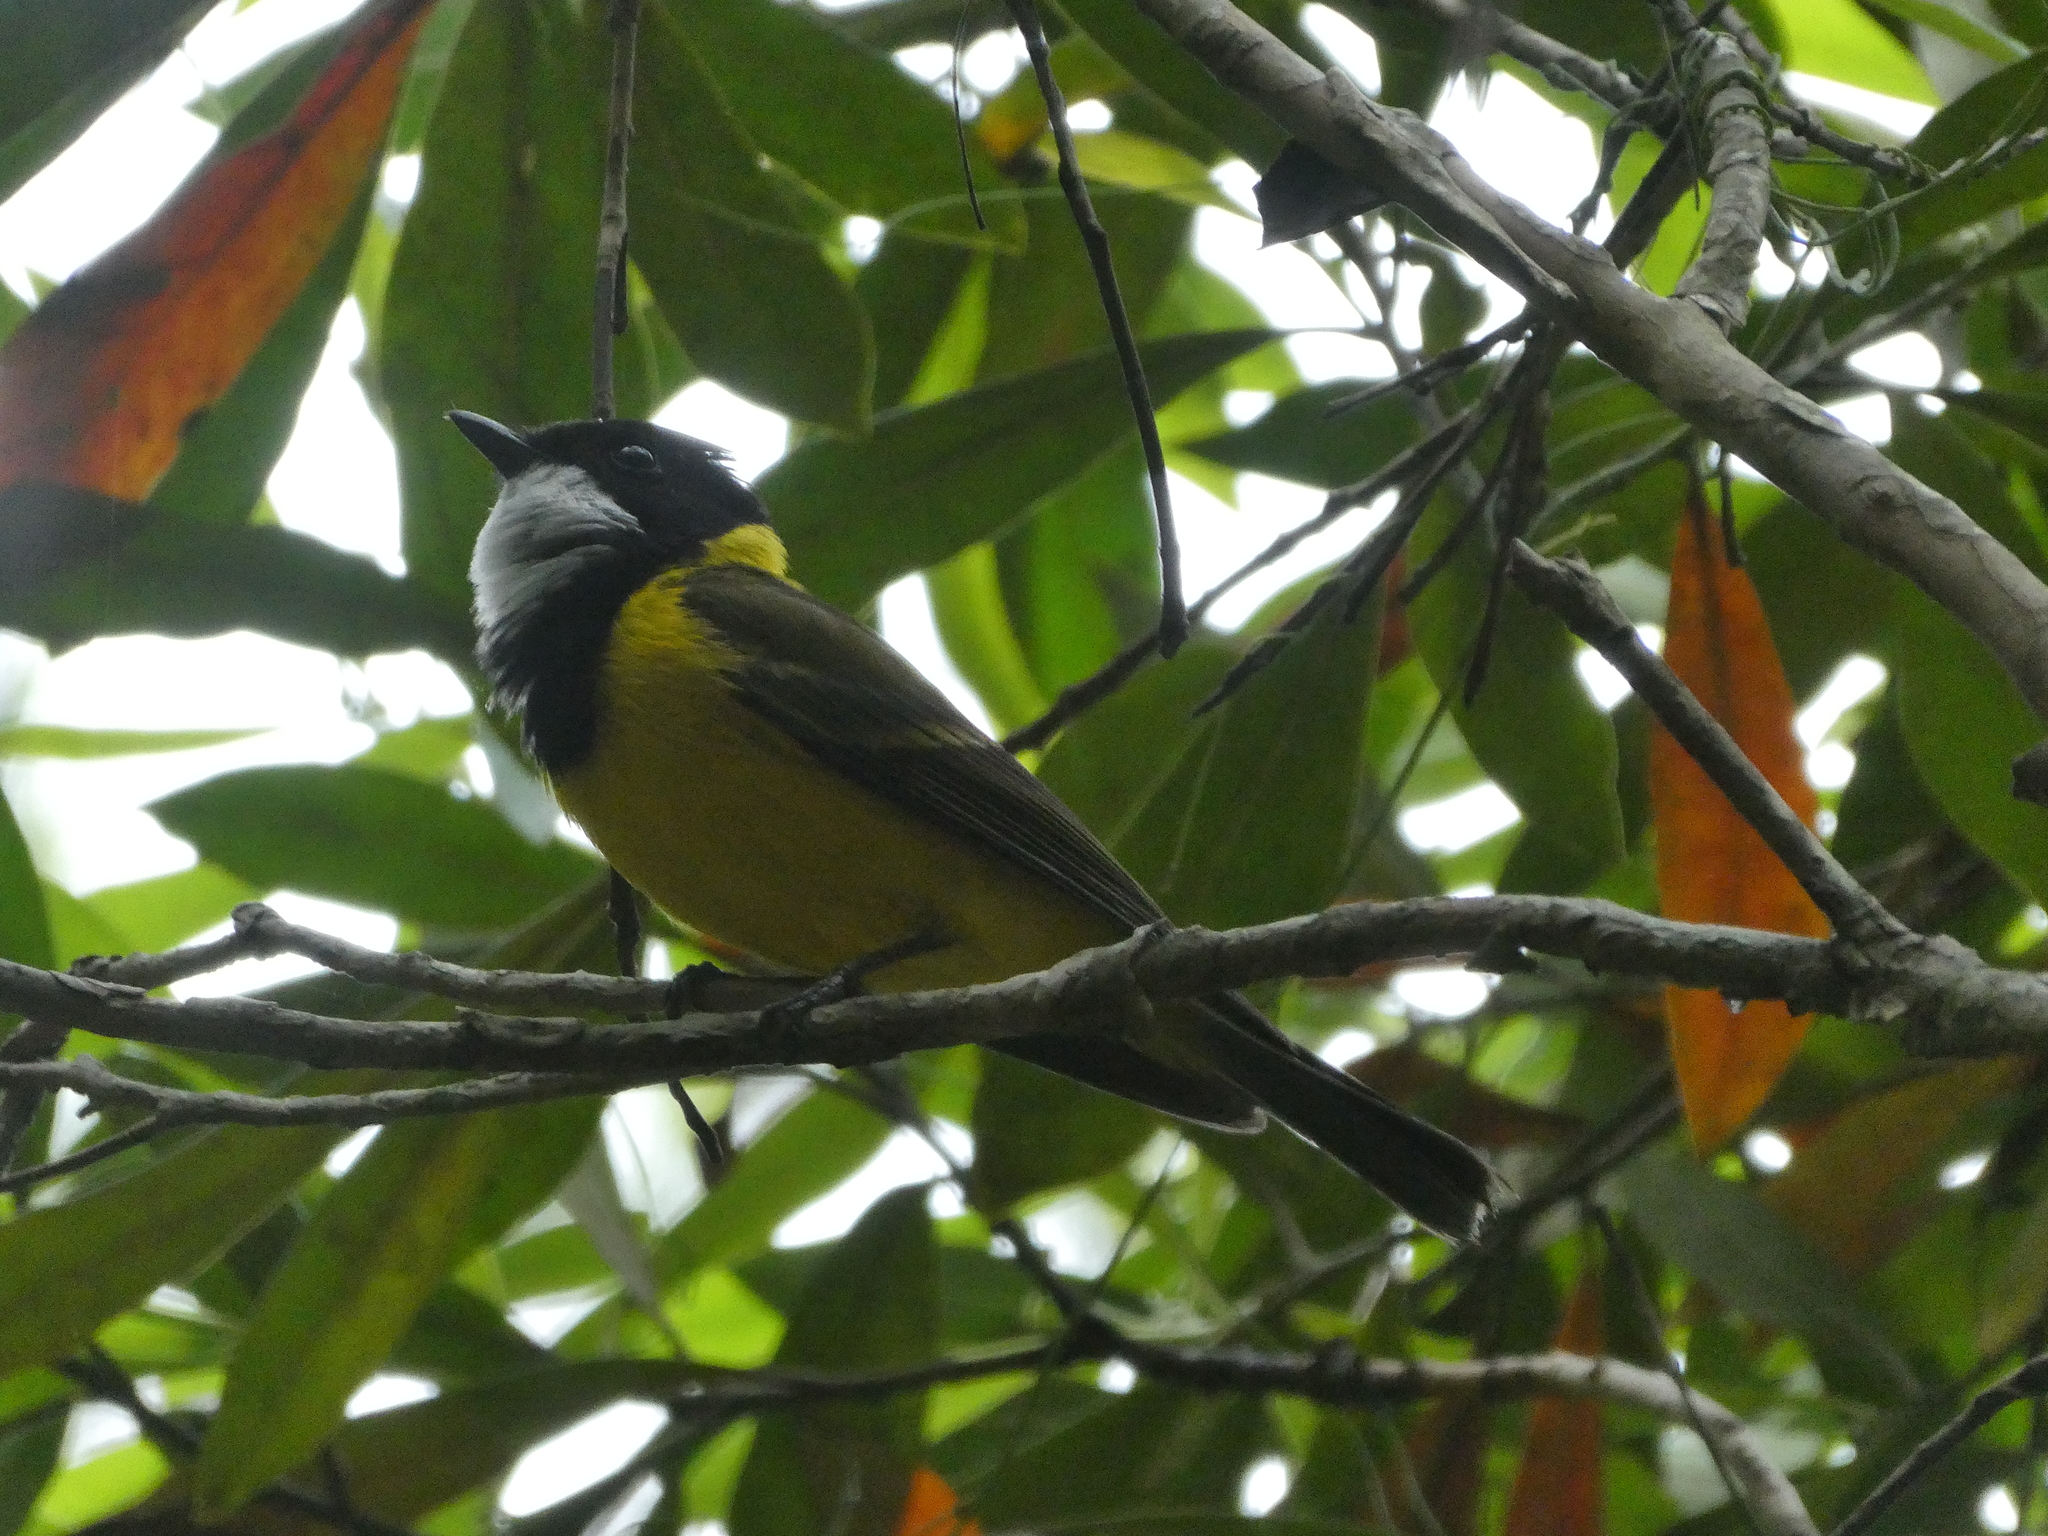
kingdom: Animalia
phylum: Chordata
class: Aves
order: Passeriformes
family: Pachycephalidae
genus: Pachycephala
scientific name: Pachycephala pectoralis
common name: Australian golden whistler
